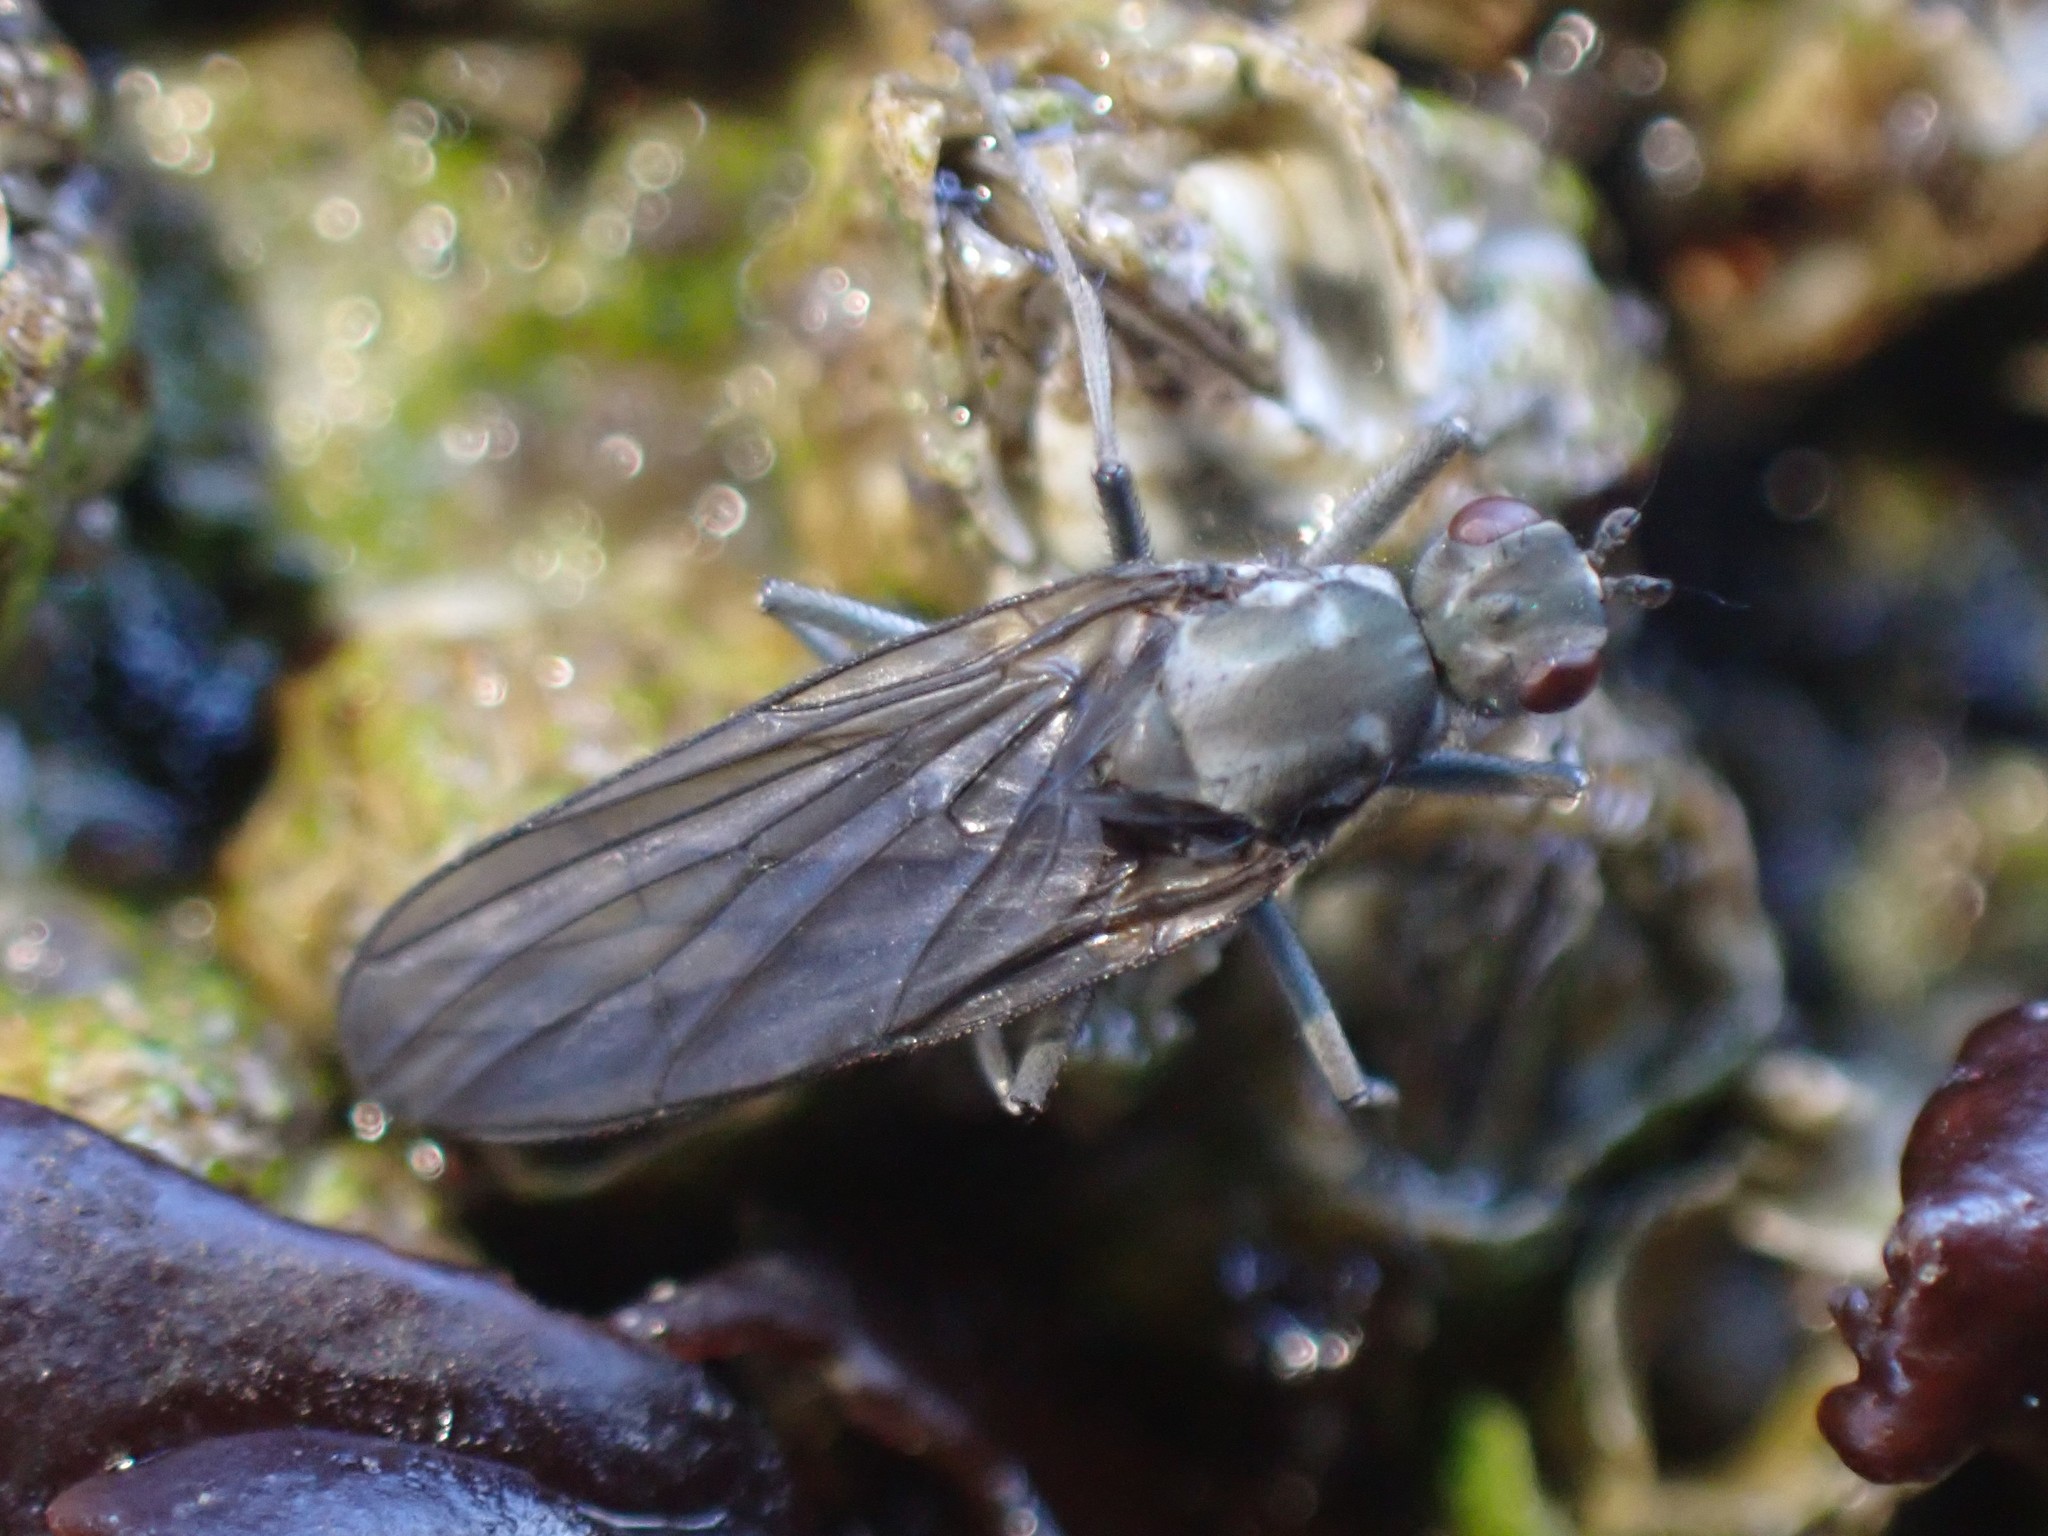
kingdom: Animalia
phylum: Arthropoda
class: Insecta
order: Diptera
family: Dryomyzidae
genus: Oedoparena
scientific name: Oedoparena glauca
